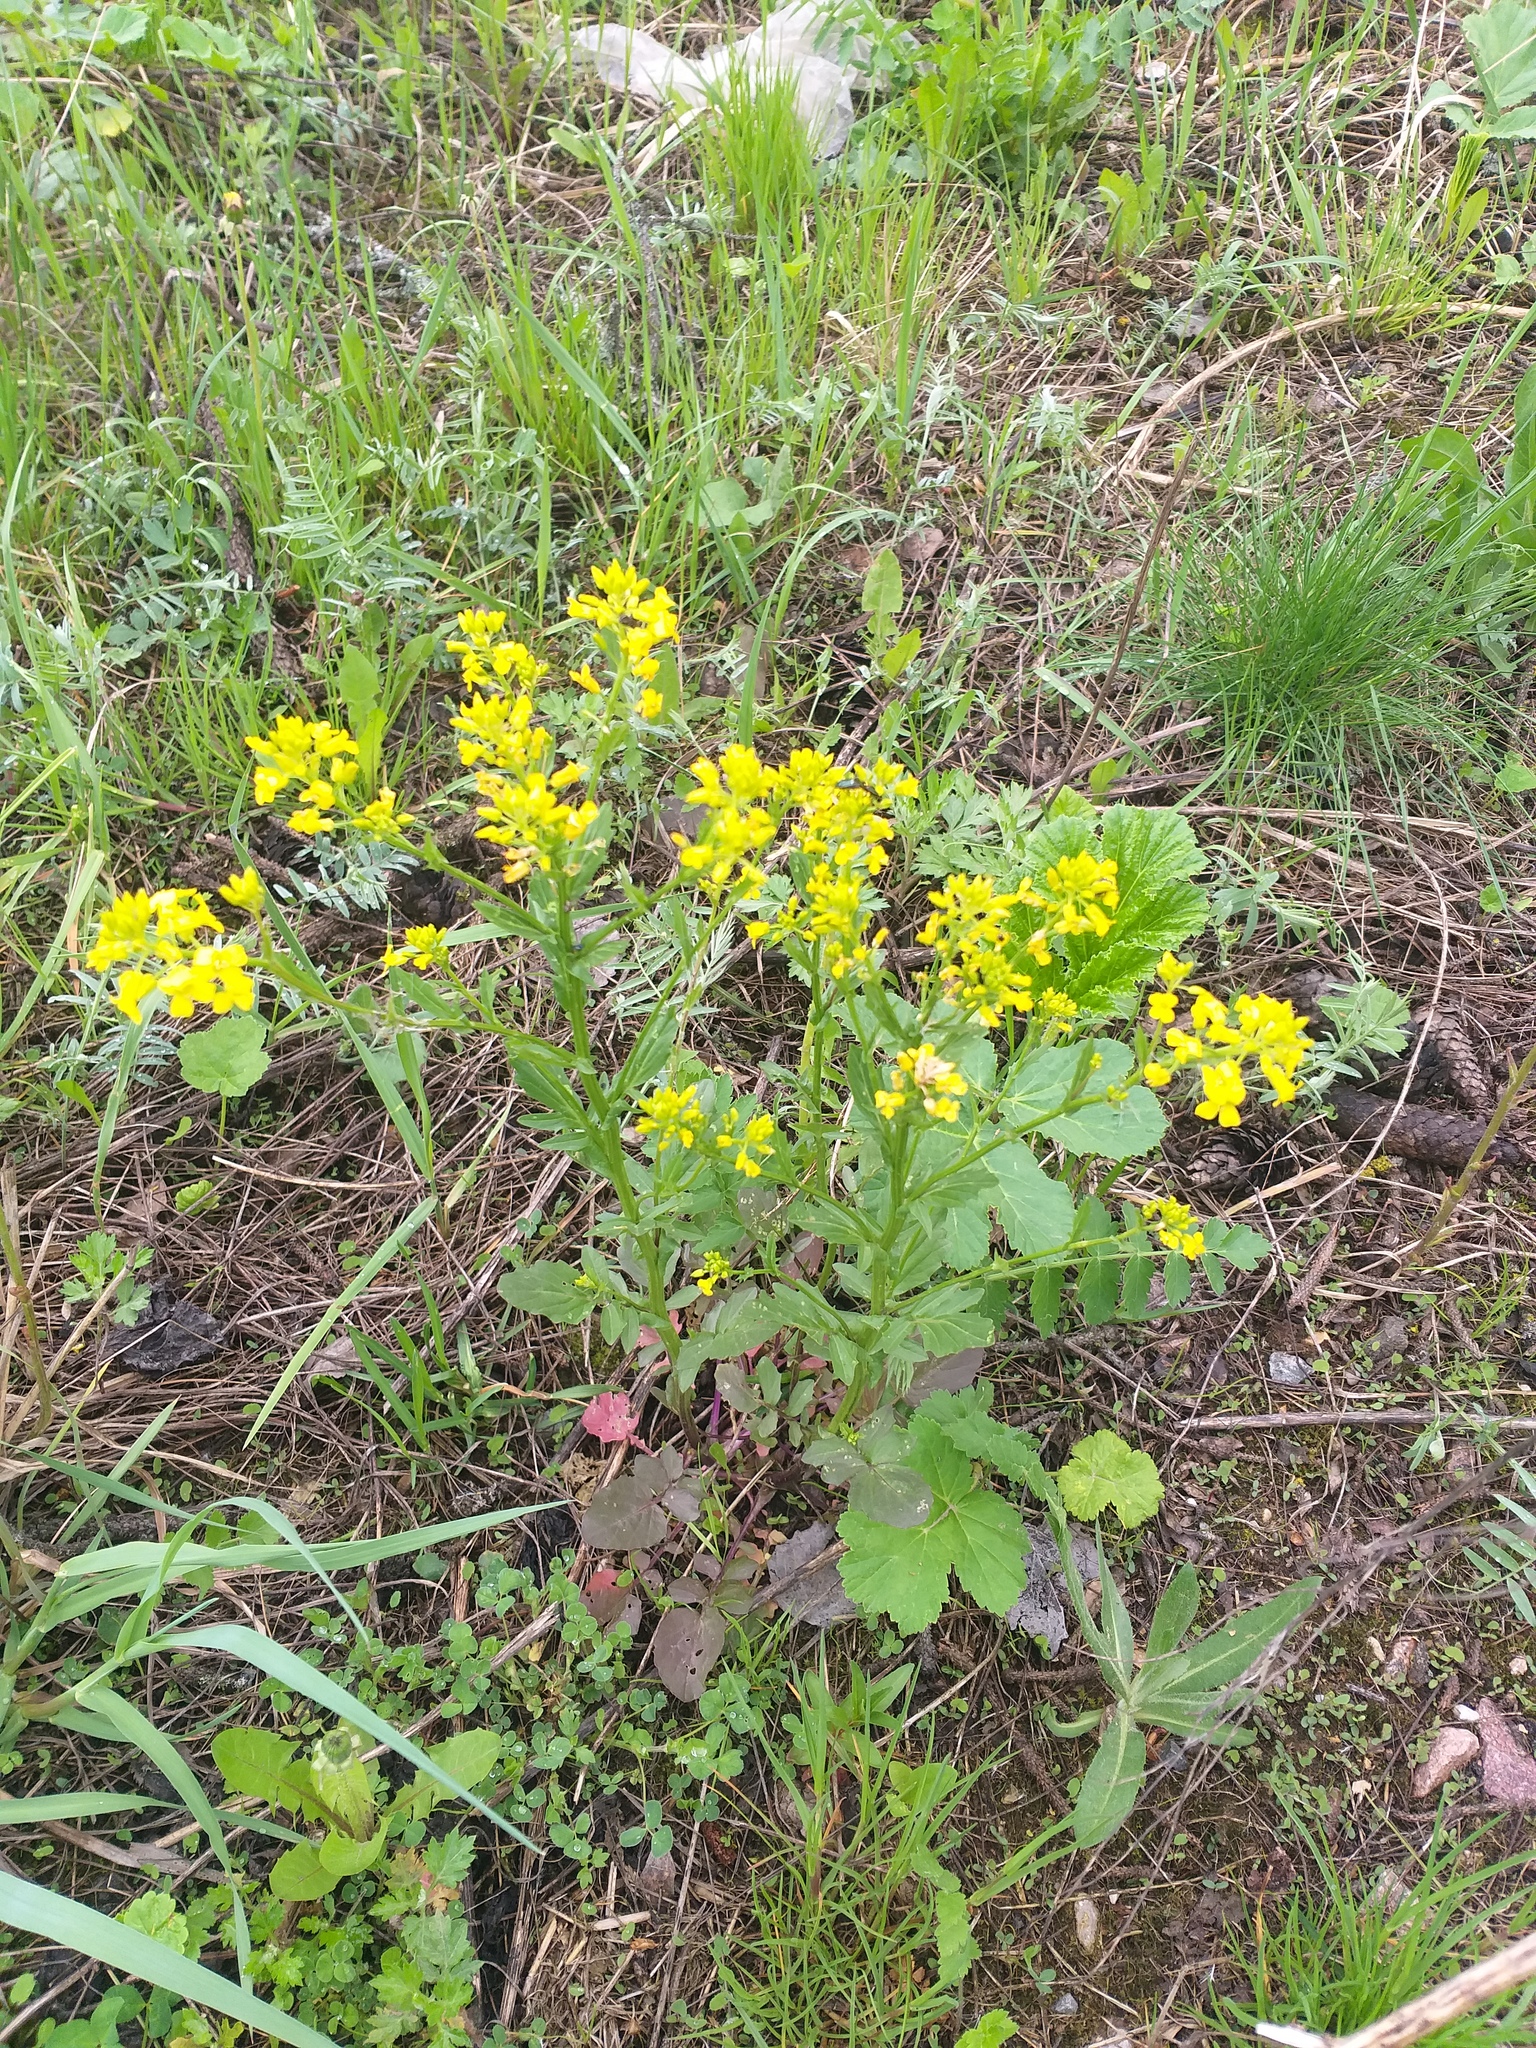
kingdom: Plantae
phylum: Tracheophyta
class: Magnoliopsida
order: Brassicales
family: Brassicaceae
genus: Barbarea
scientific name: Barbarea vulgaris
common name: Cressy-greens
